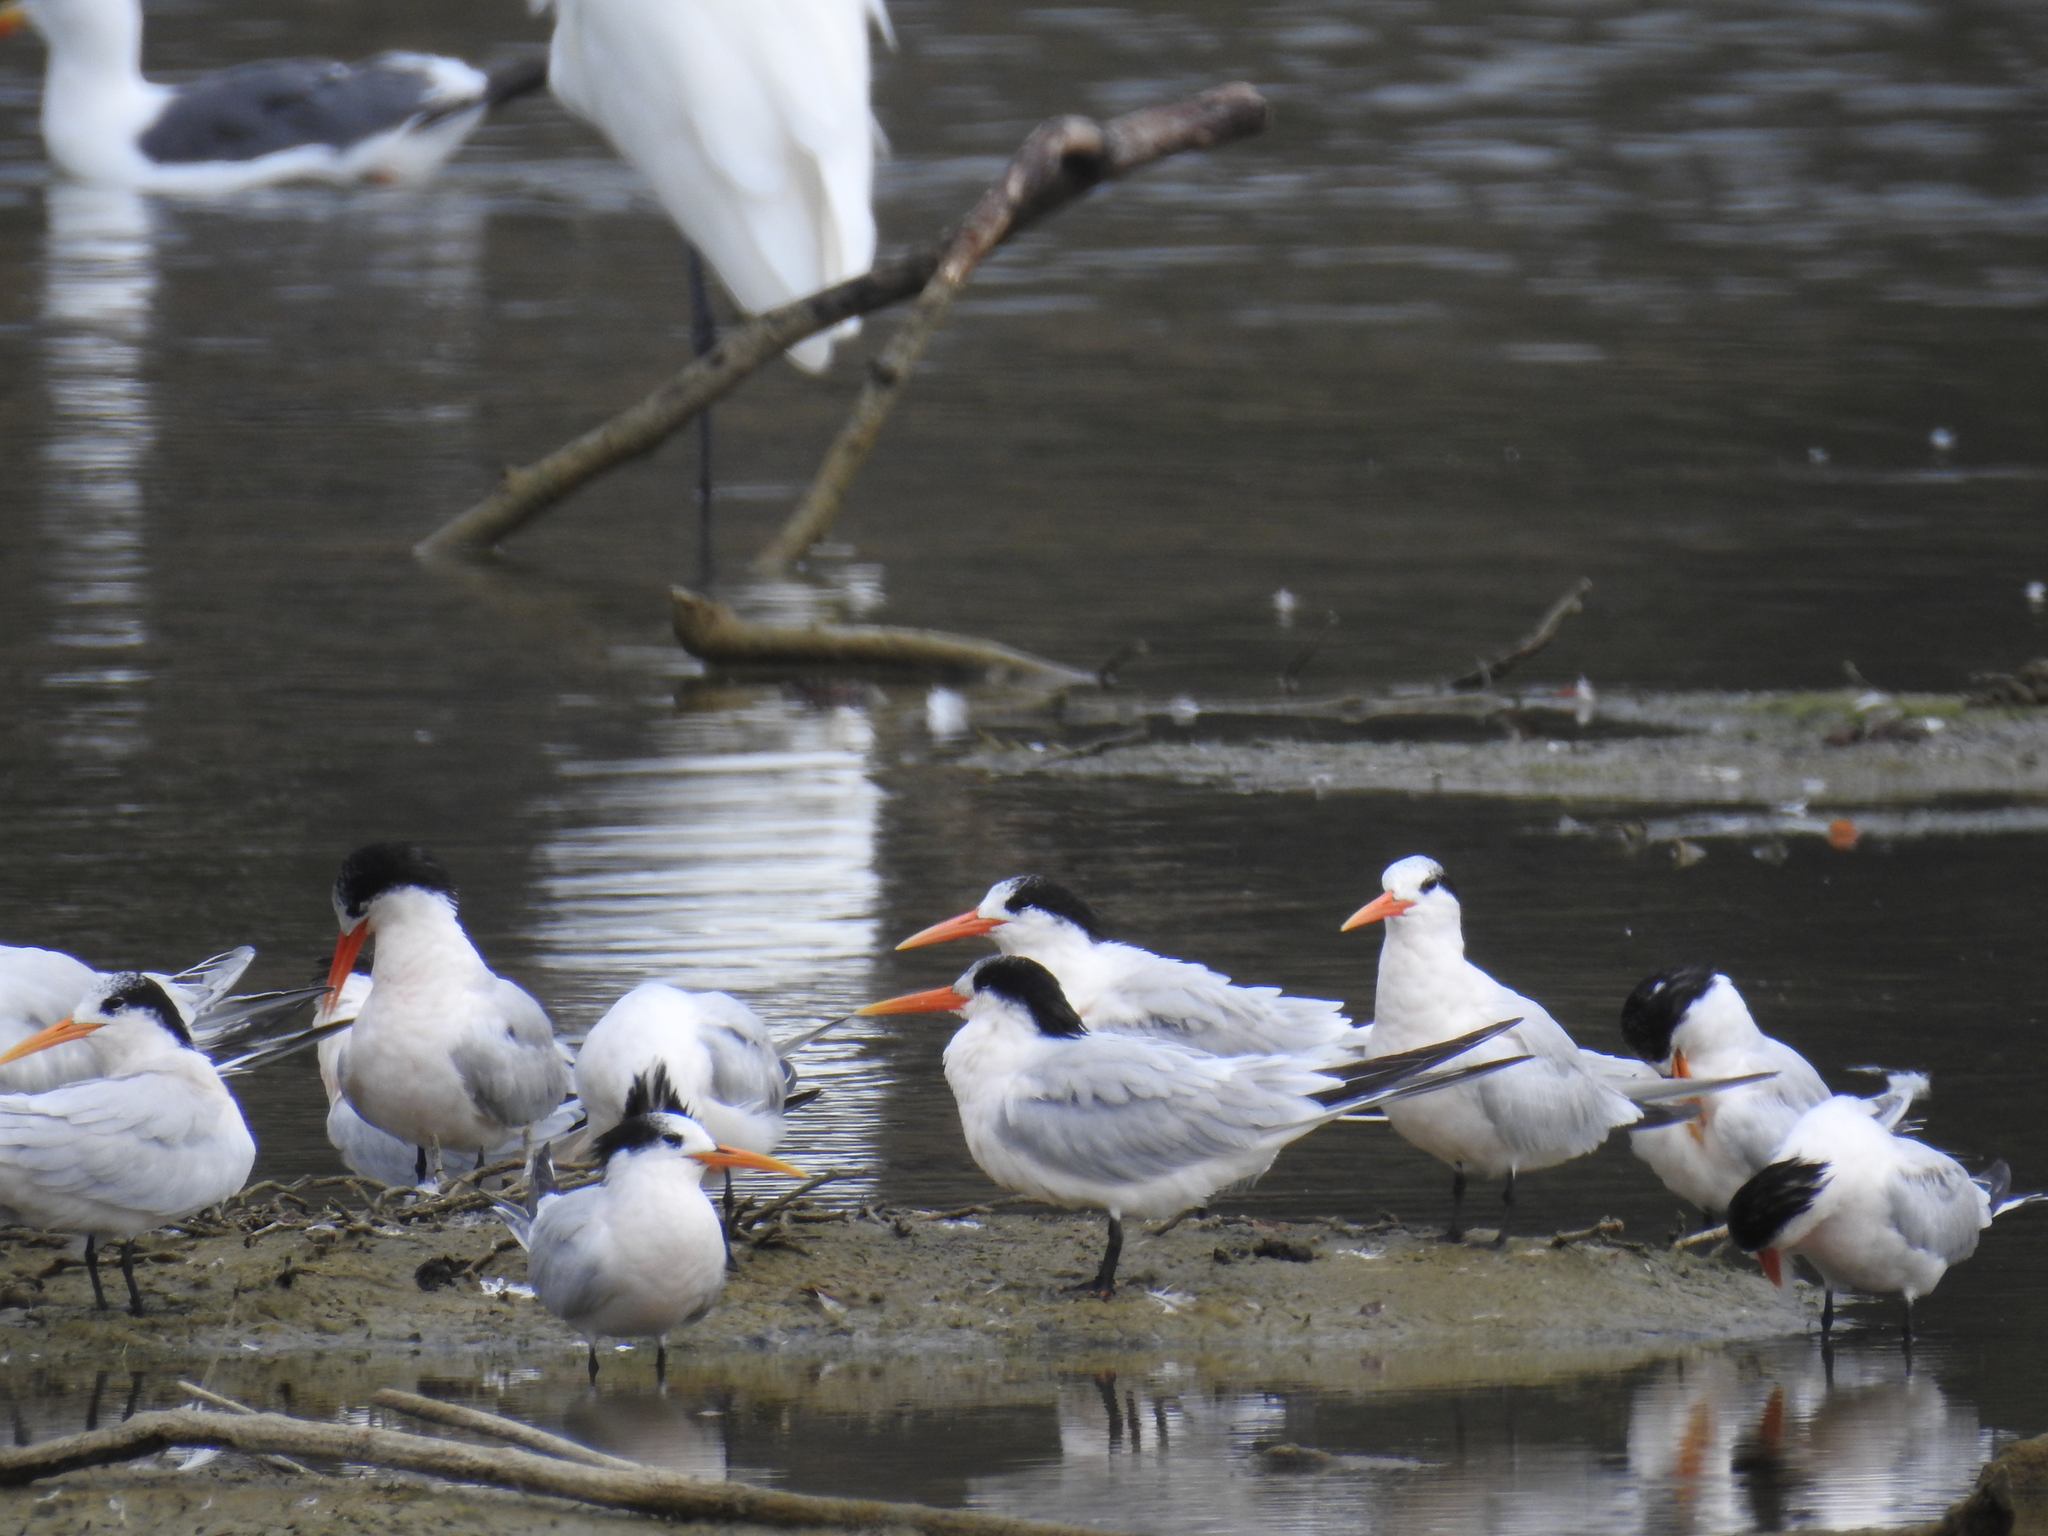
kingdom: Animalia
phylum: Chordata
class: Aves
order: Charadriiformes
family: Laridae
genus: Thalasseus
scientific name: Thalasseus elegans
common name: Elegant tern
